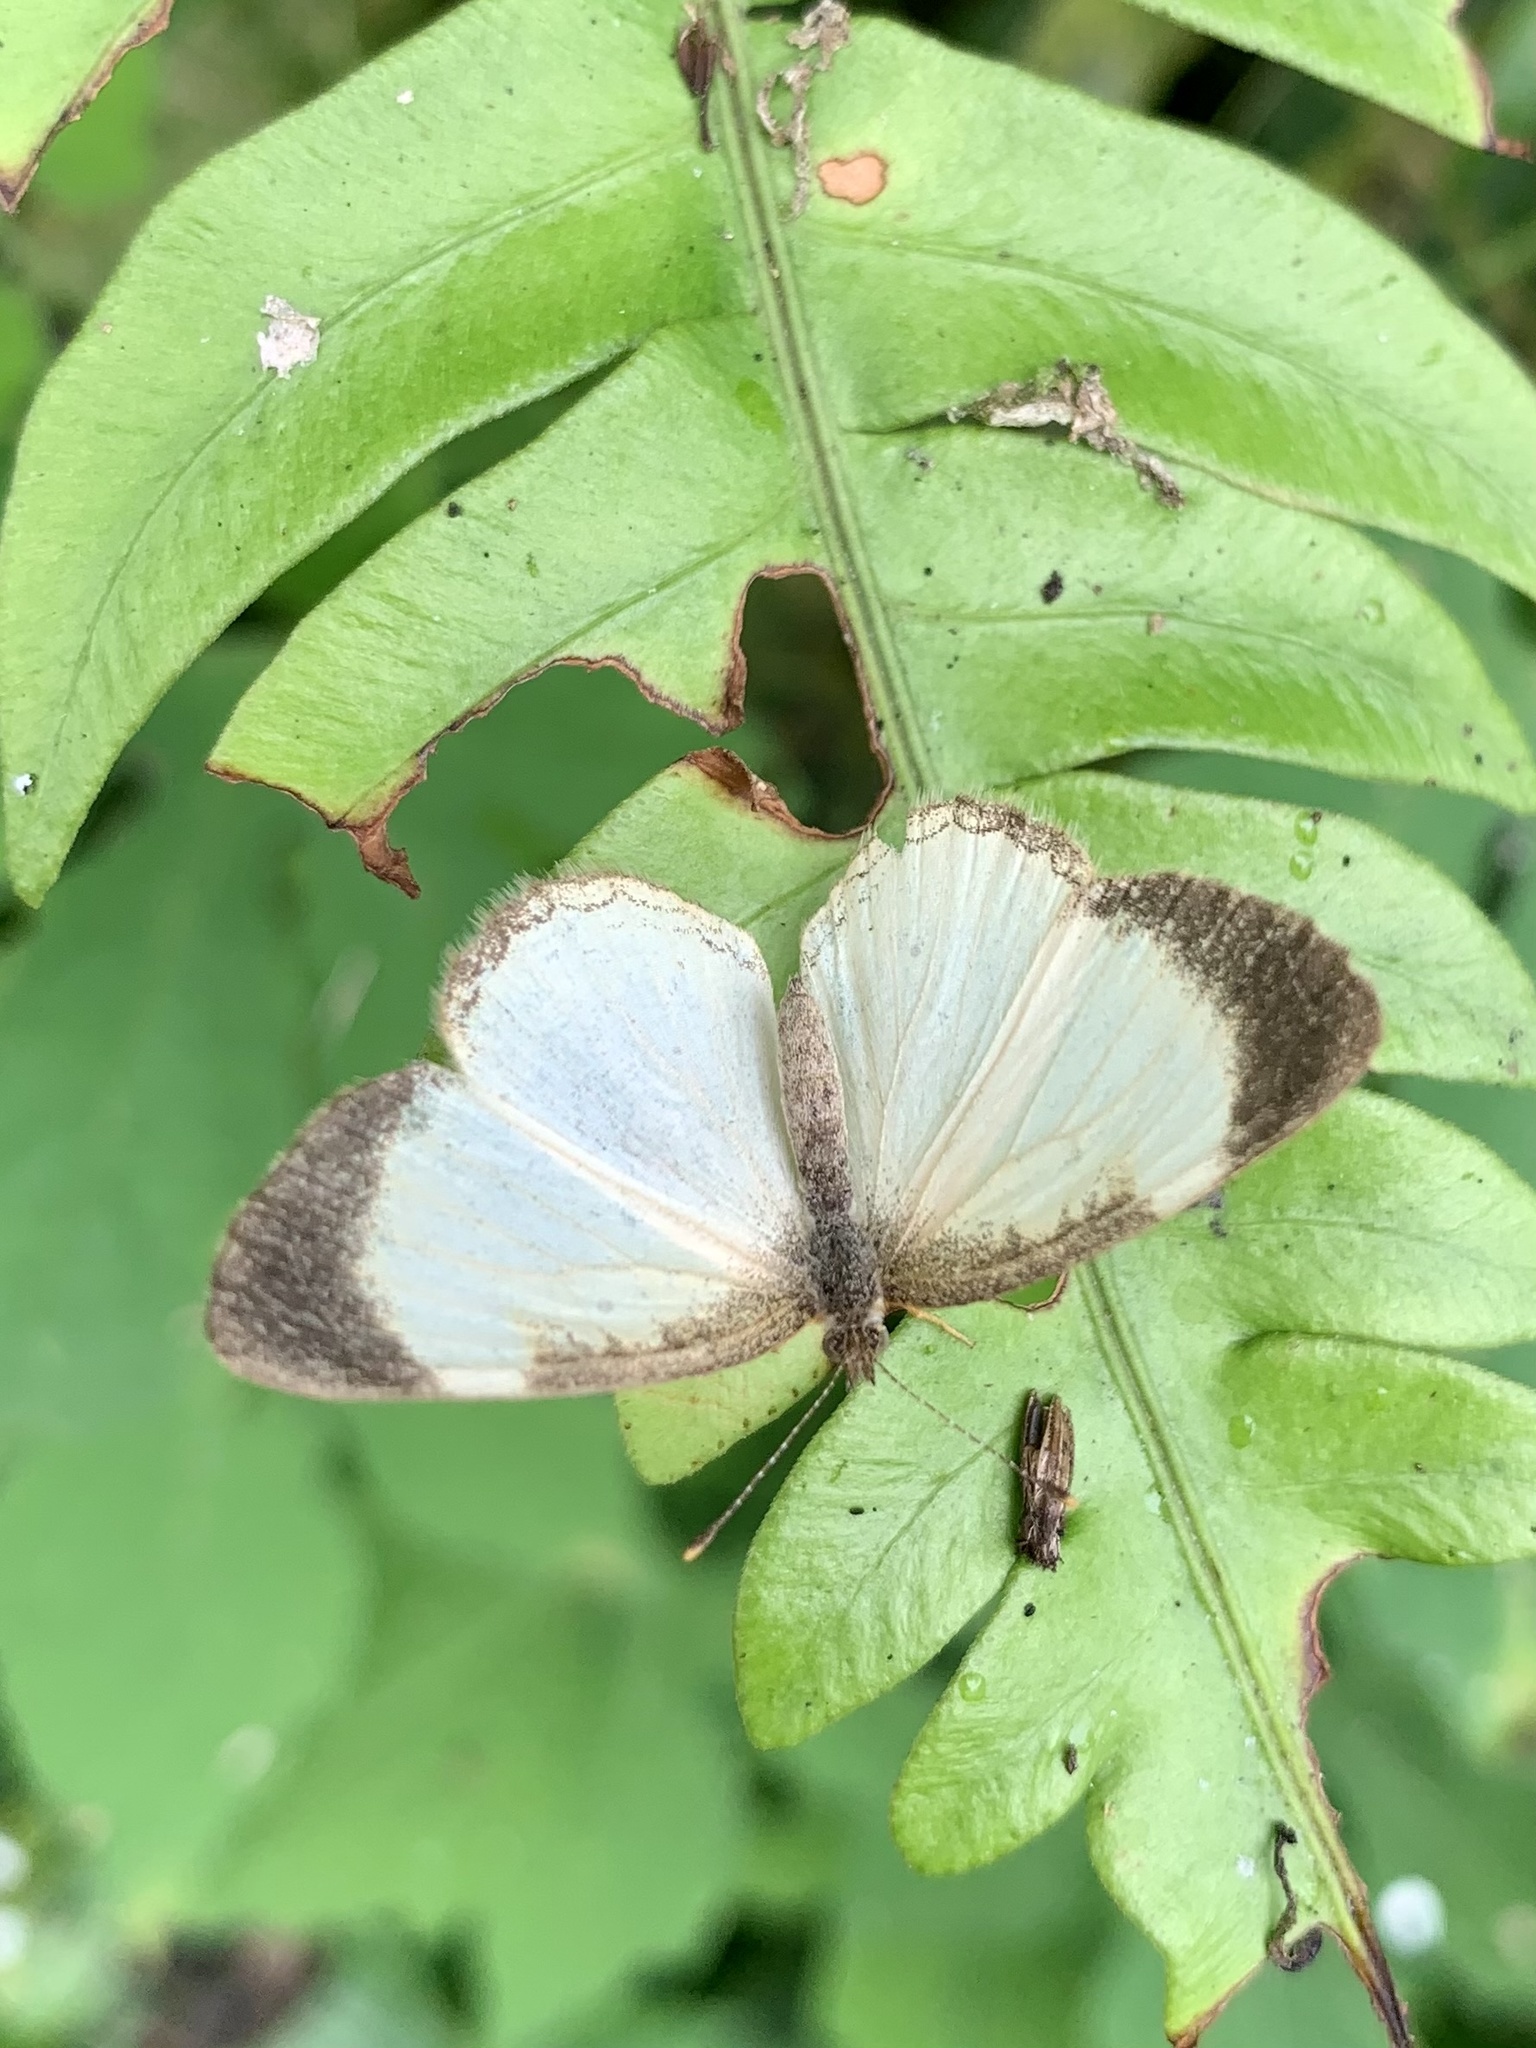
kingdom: Animalia
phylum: Arthropoda
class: Insecta
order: Lepidoptera
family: Nymphalidae
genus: Tegosa
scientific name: Tegosa flavida
